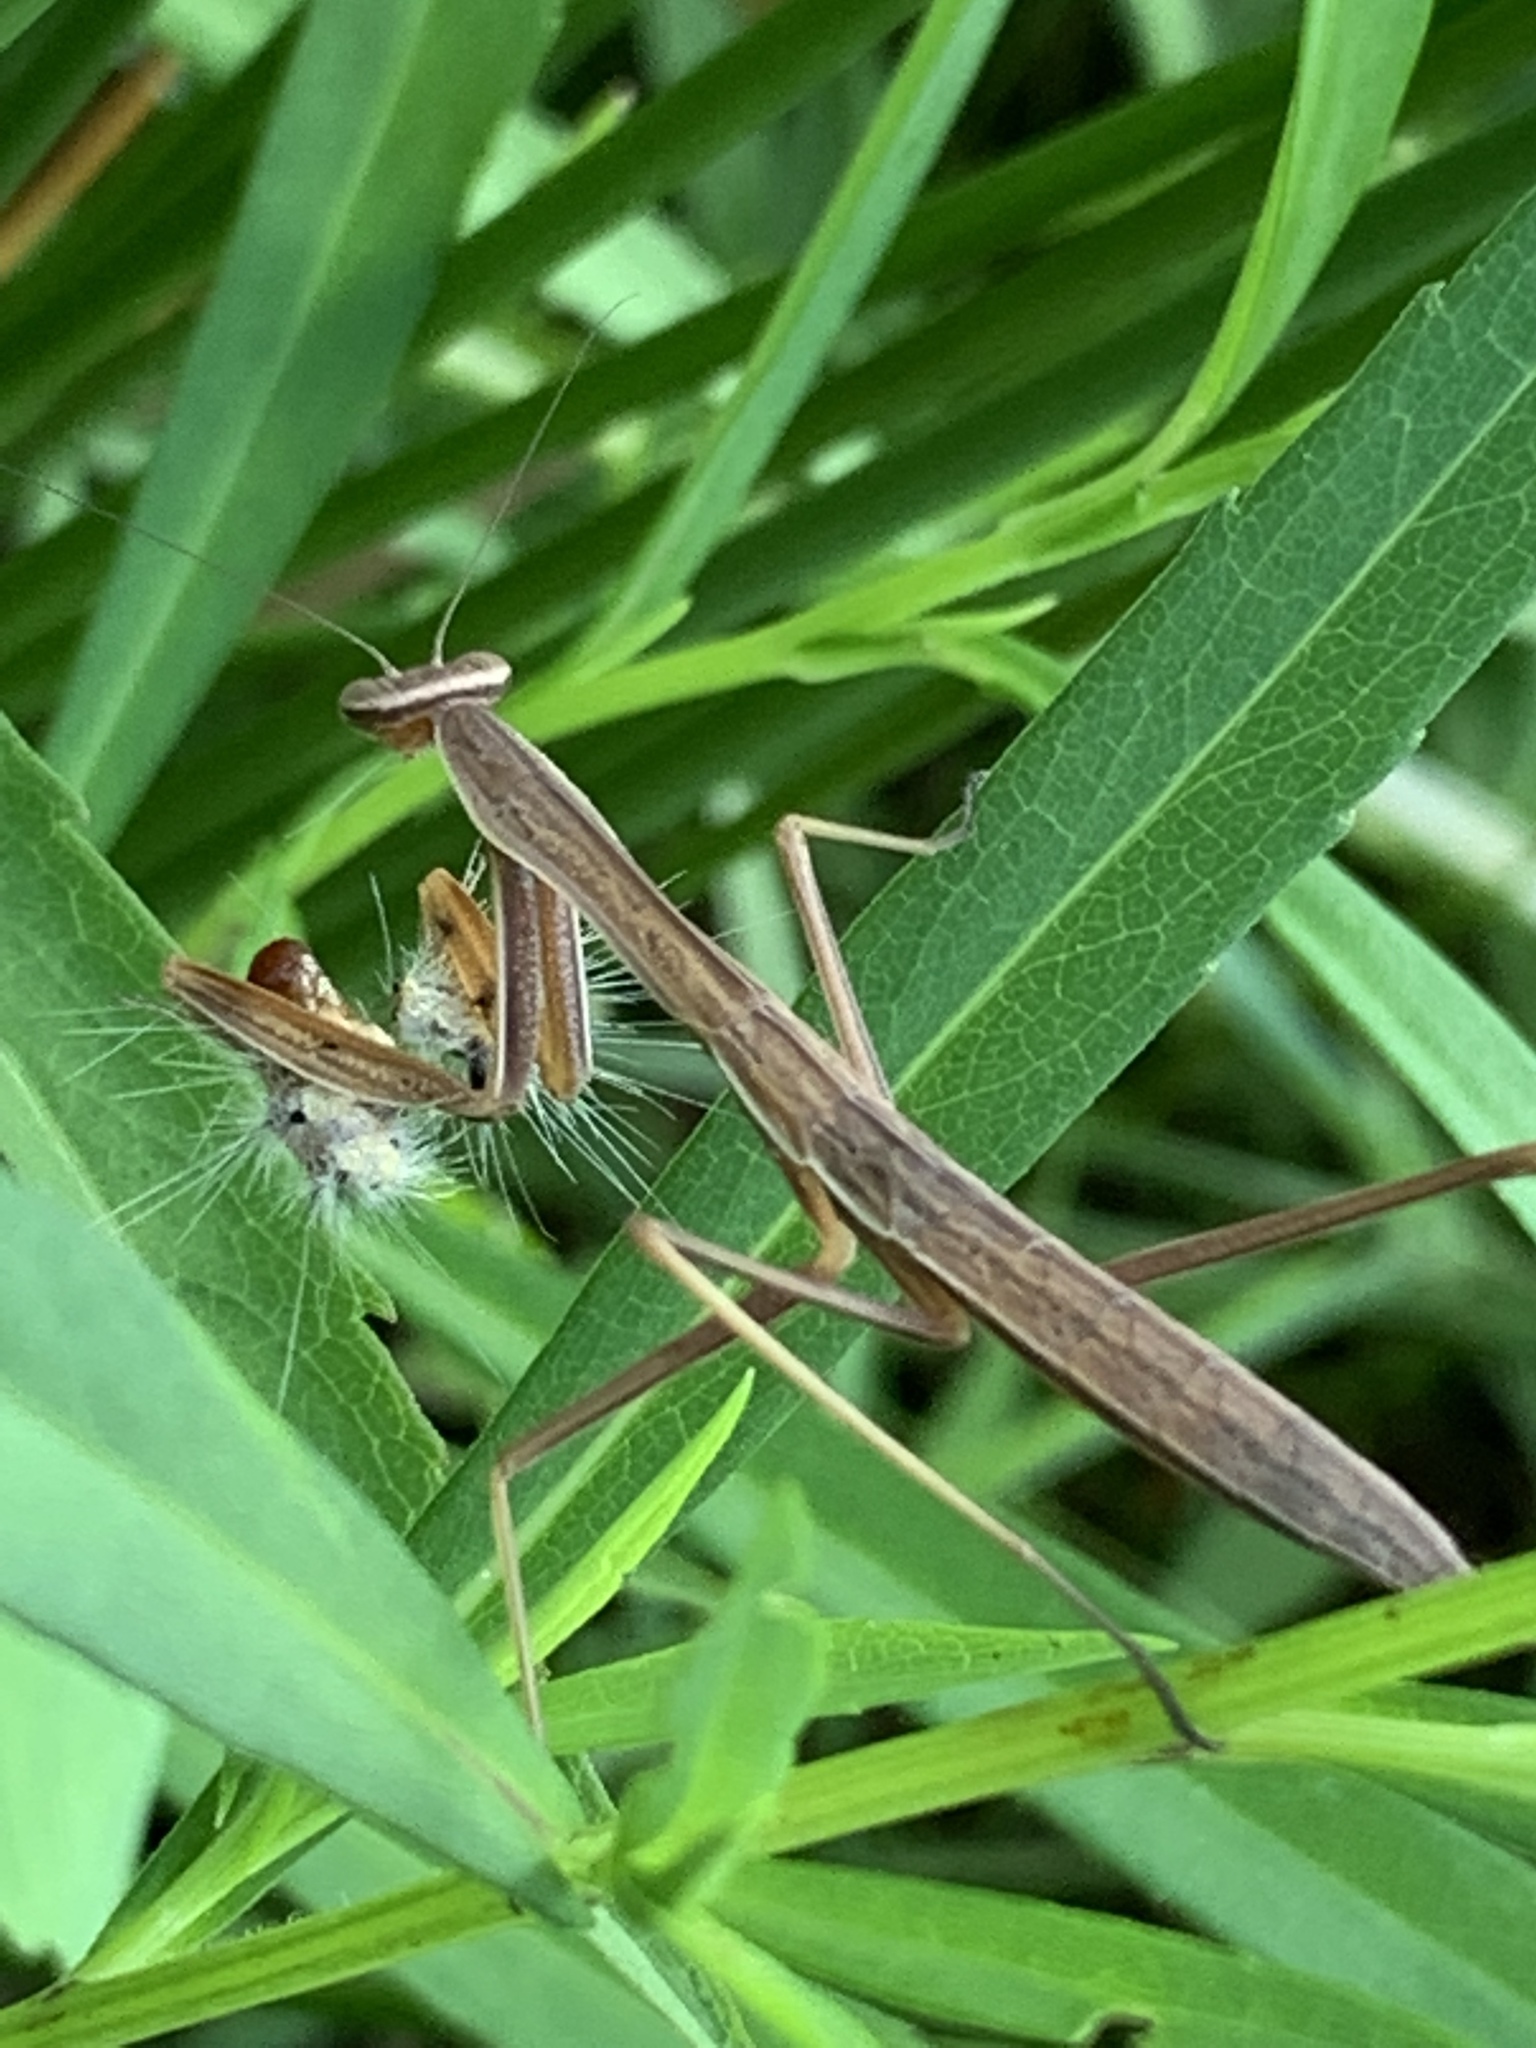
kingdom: Animalia
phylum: Arthropoda
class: Insecta
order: Mantodea
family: Mantidae
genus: Tenodera
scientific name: Tenodera sinensis
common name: Chinese mantis
